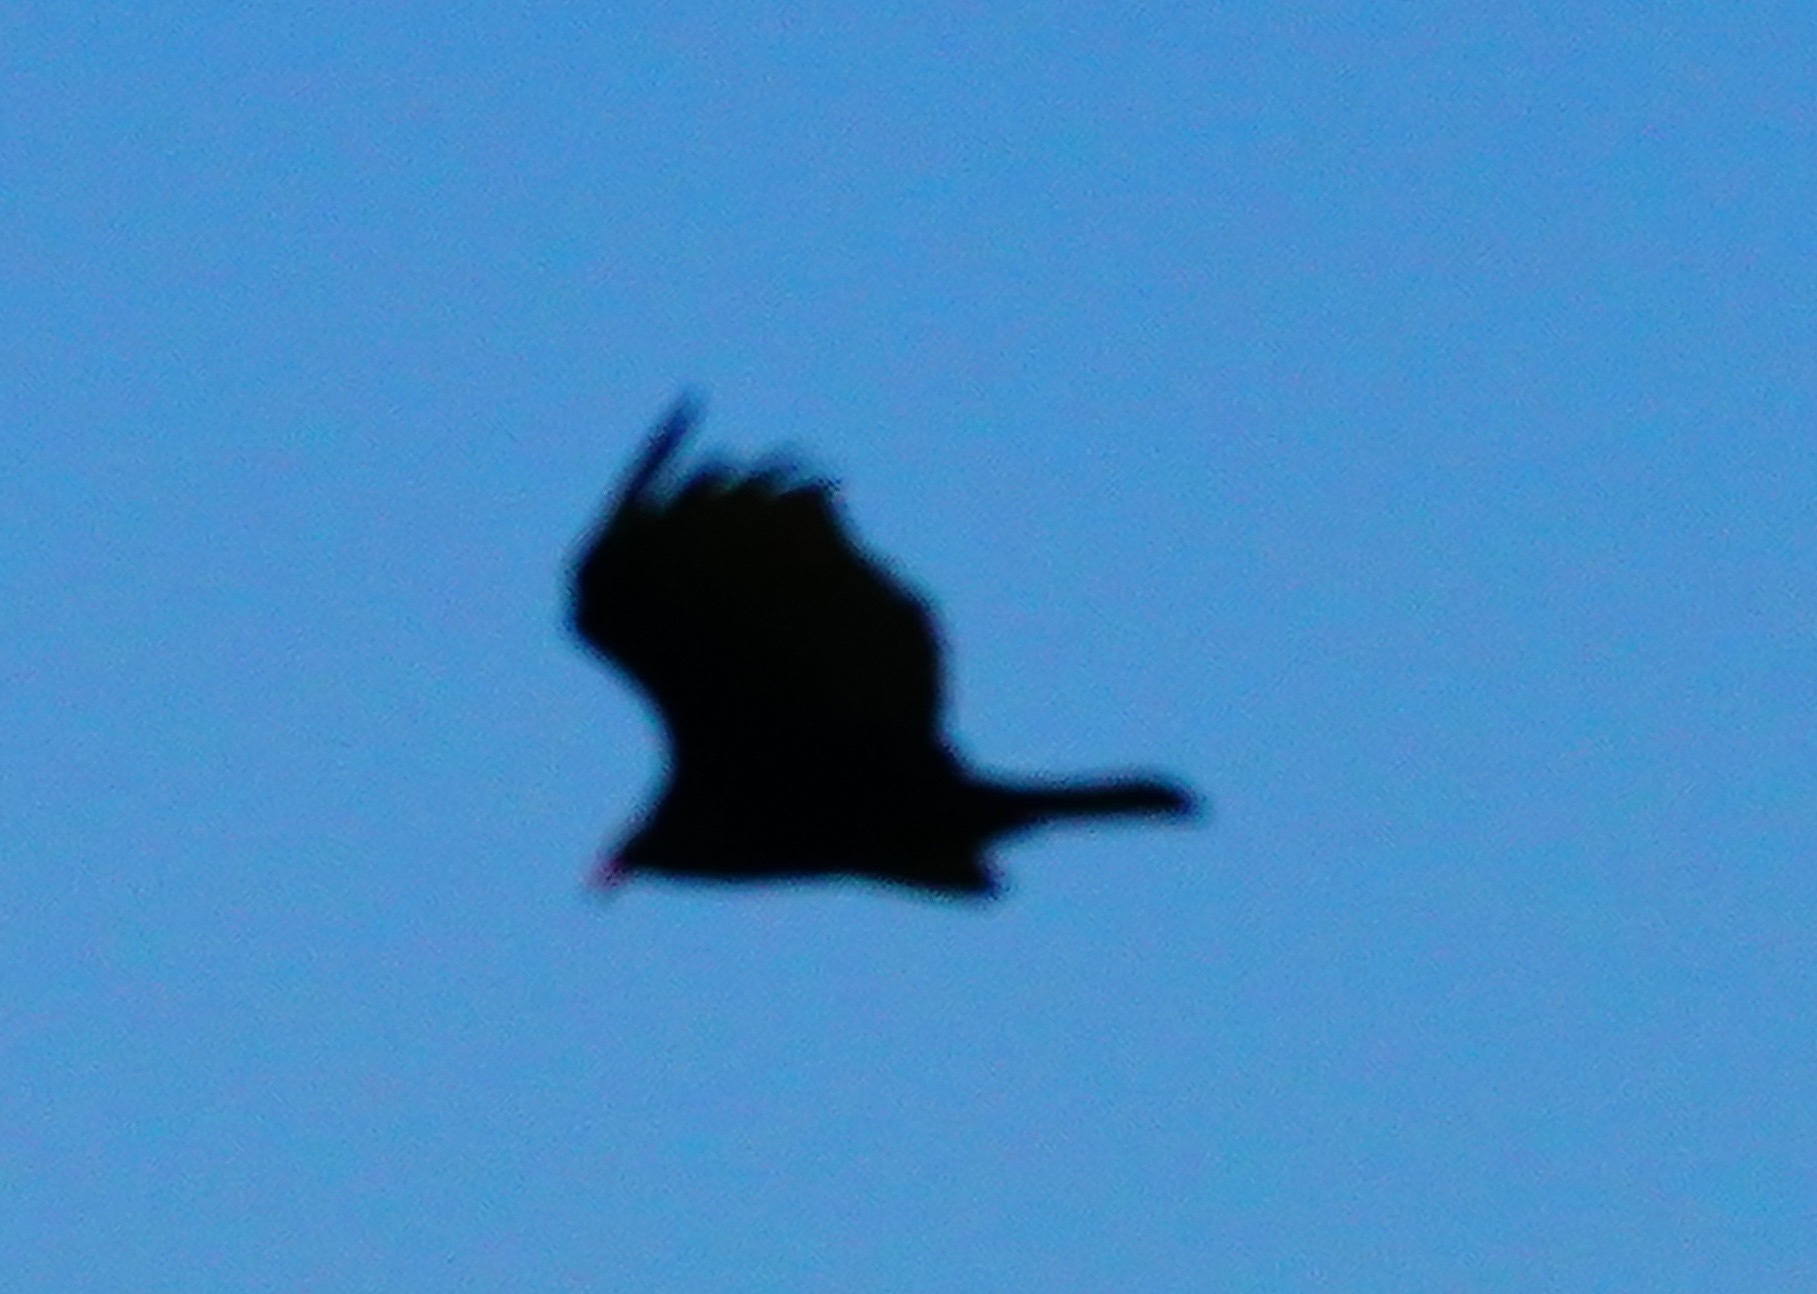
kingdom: Animalia
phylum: Chordata
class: Aves
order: Accipitriformes
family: Cathartidae
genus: Cathartes
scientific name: Cathartes aura
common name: Turkey vulture
